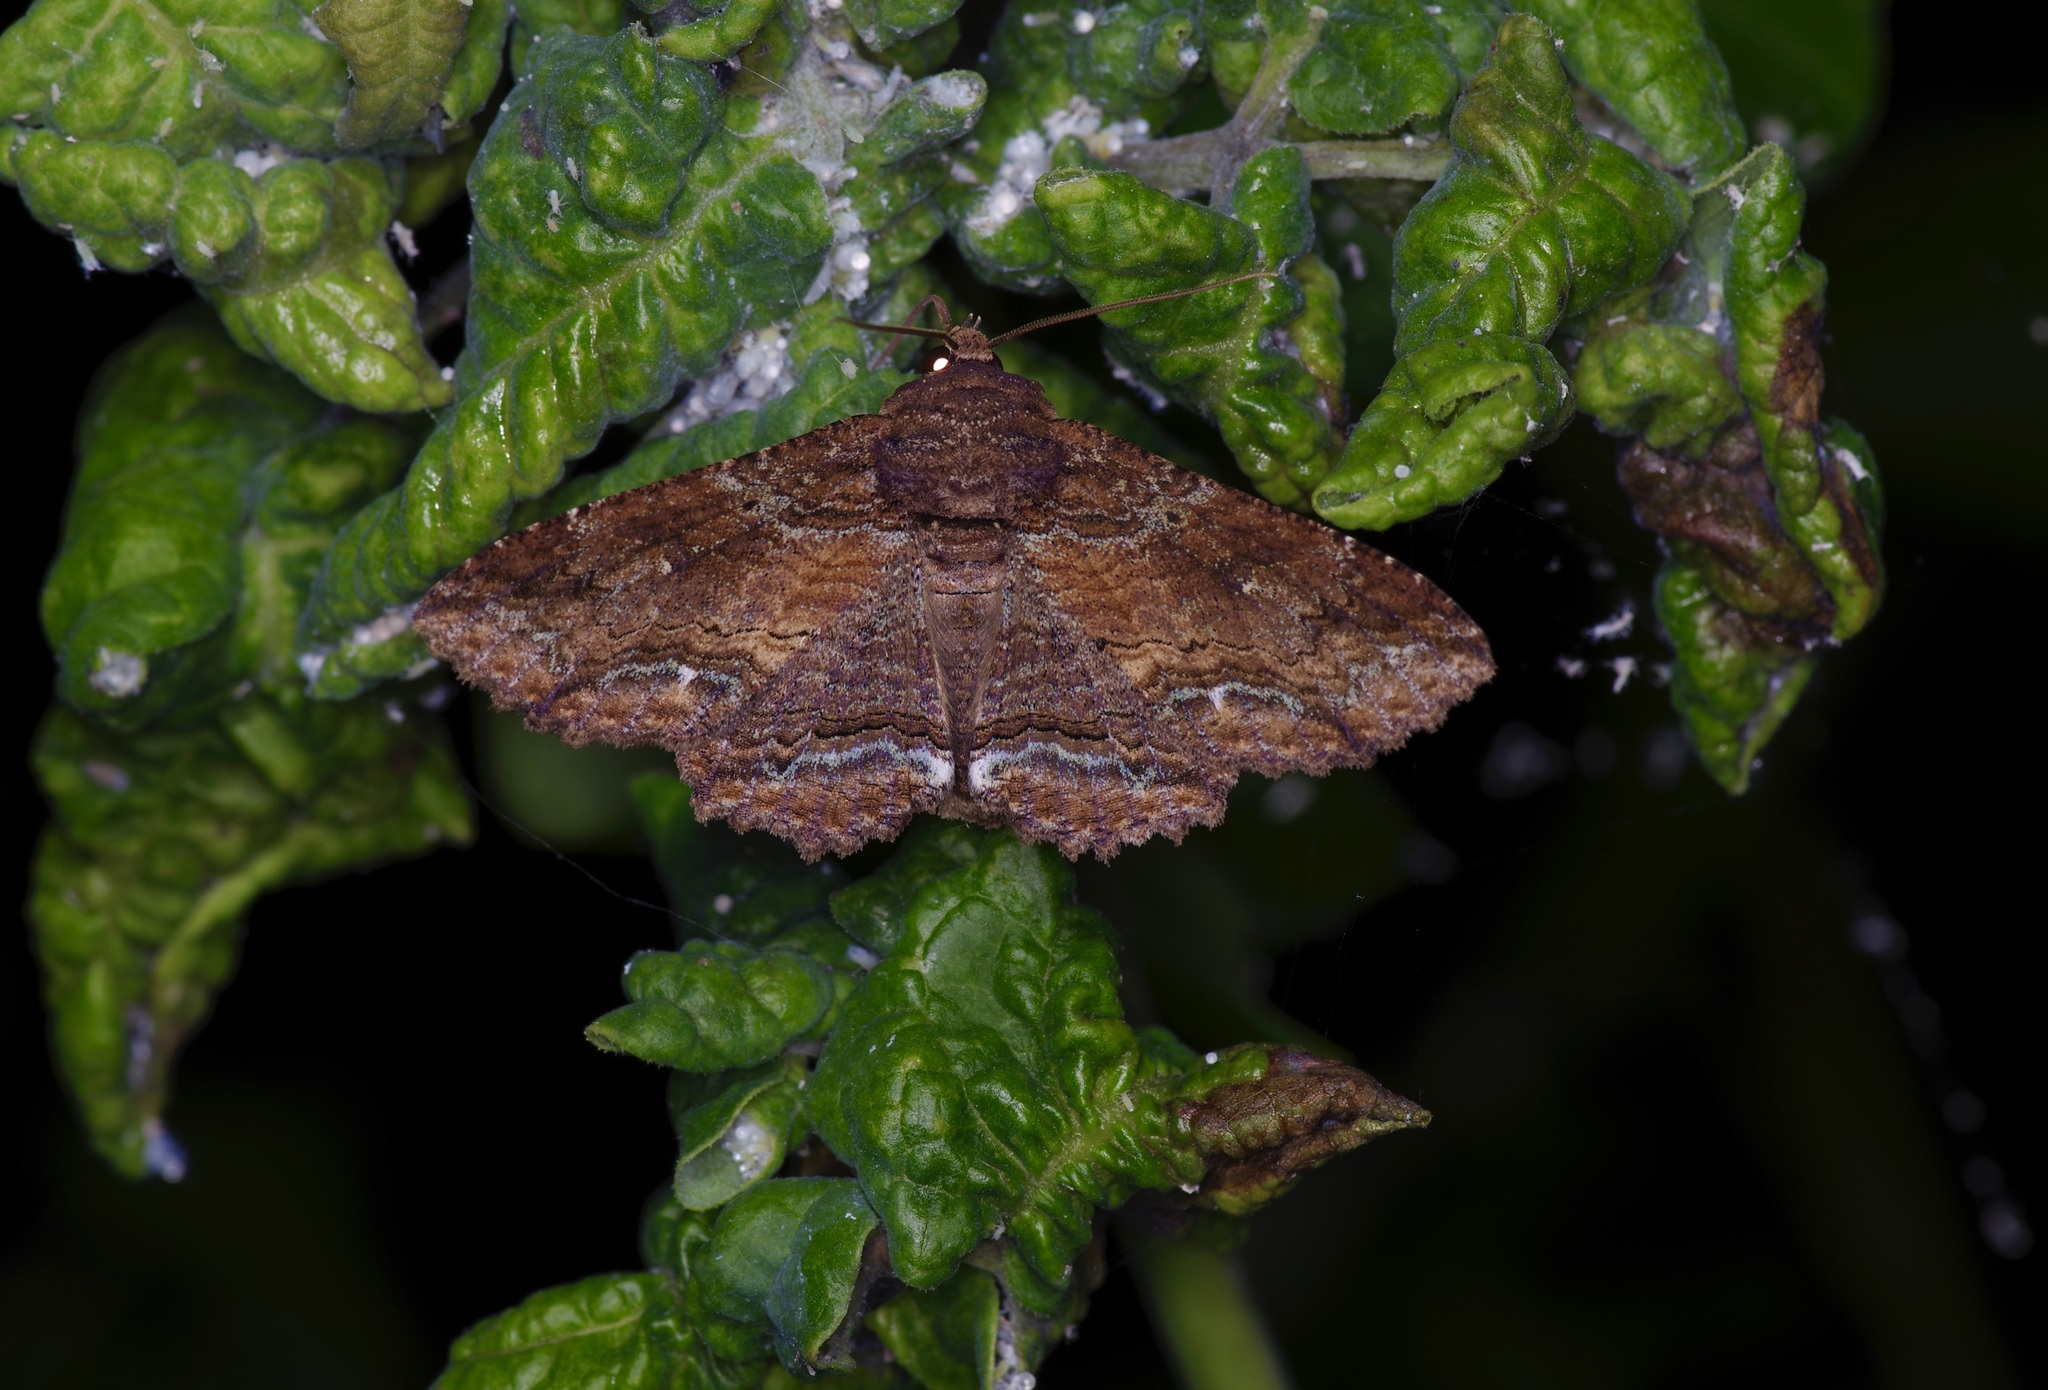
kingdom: Animalia
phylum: Arthropoda
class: Insecta
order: Lepidoptera
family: Erebidae
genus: Zale
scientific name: Zale lunata
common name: Lunate zale moth
